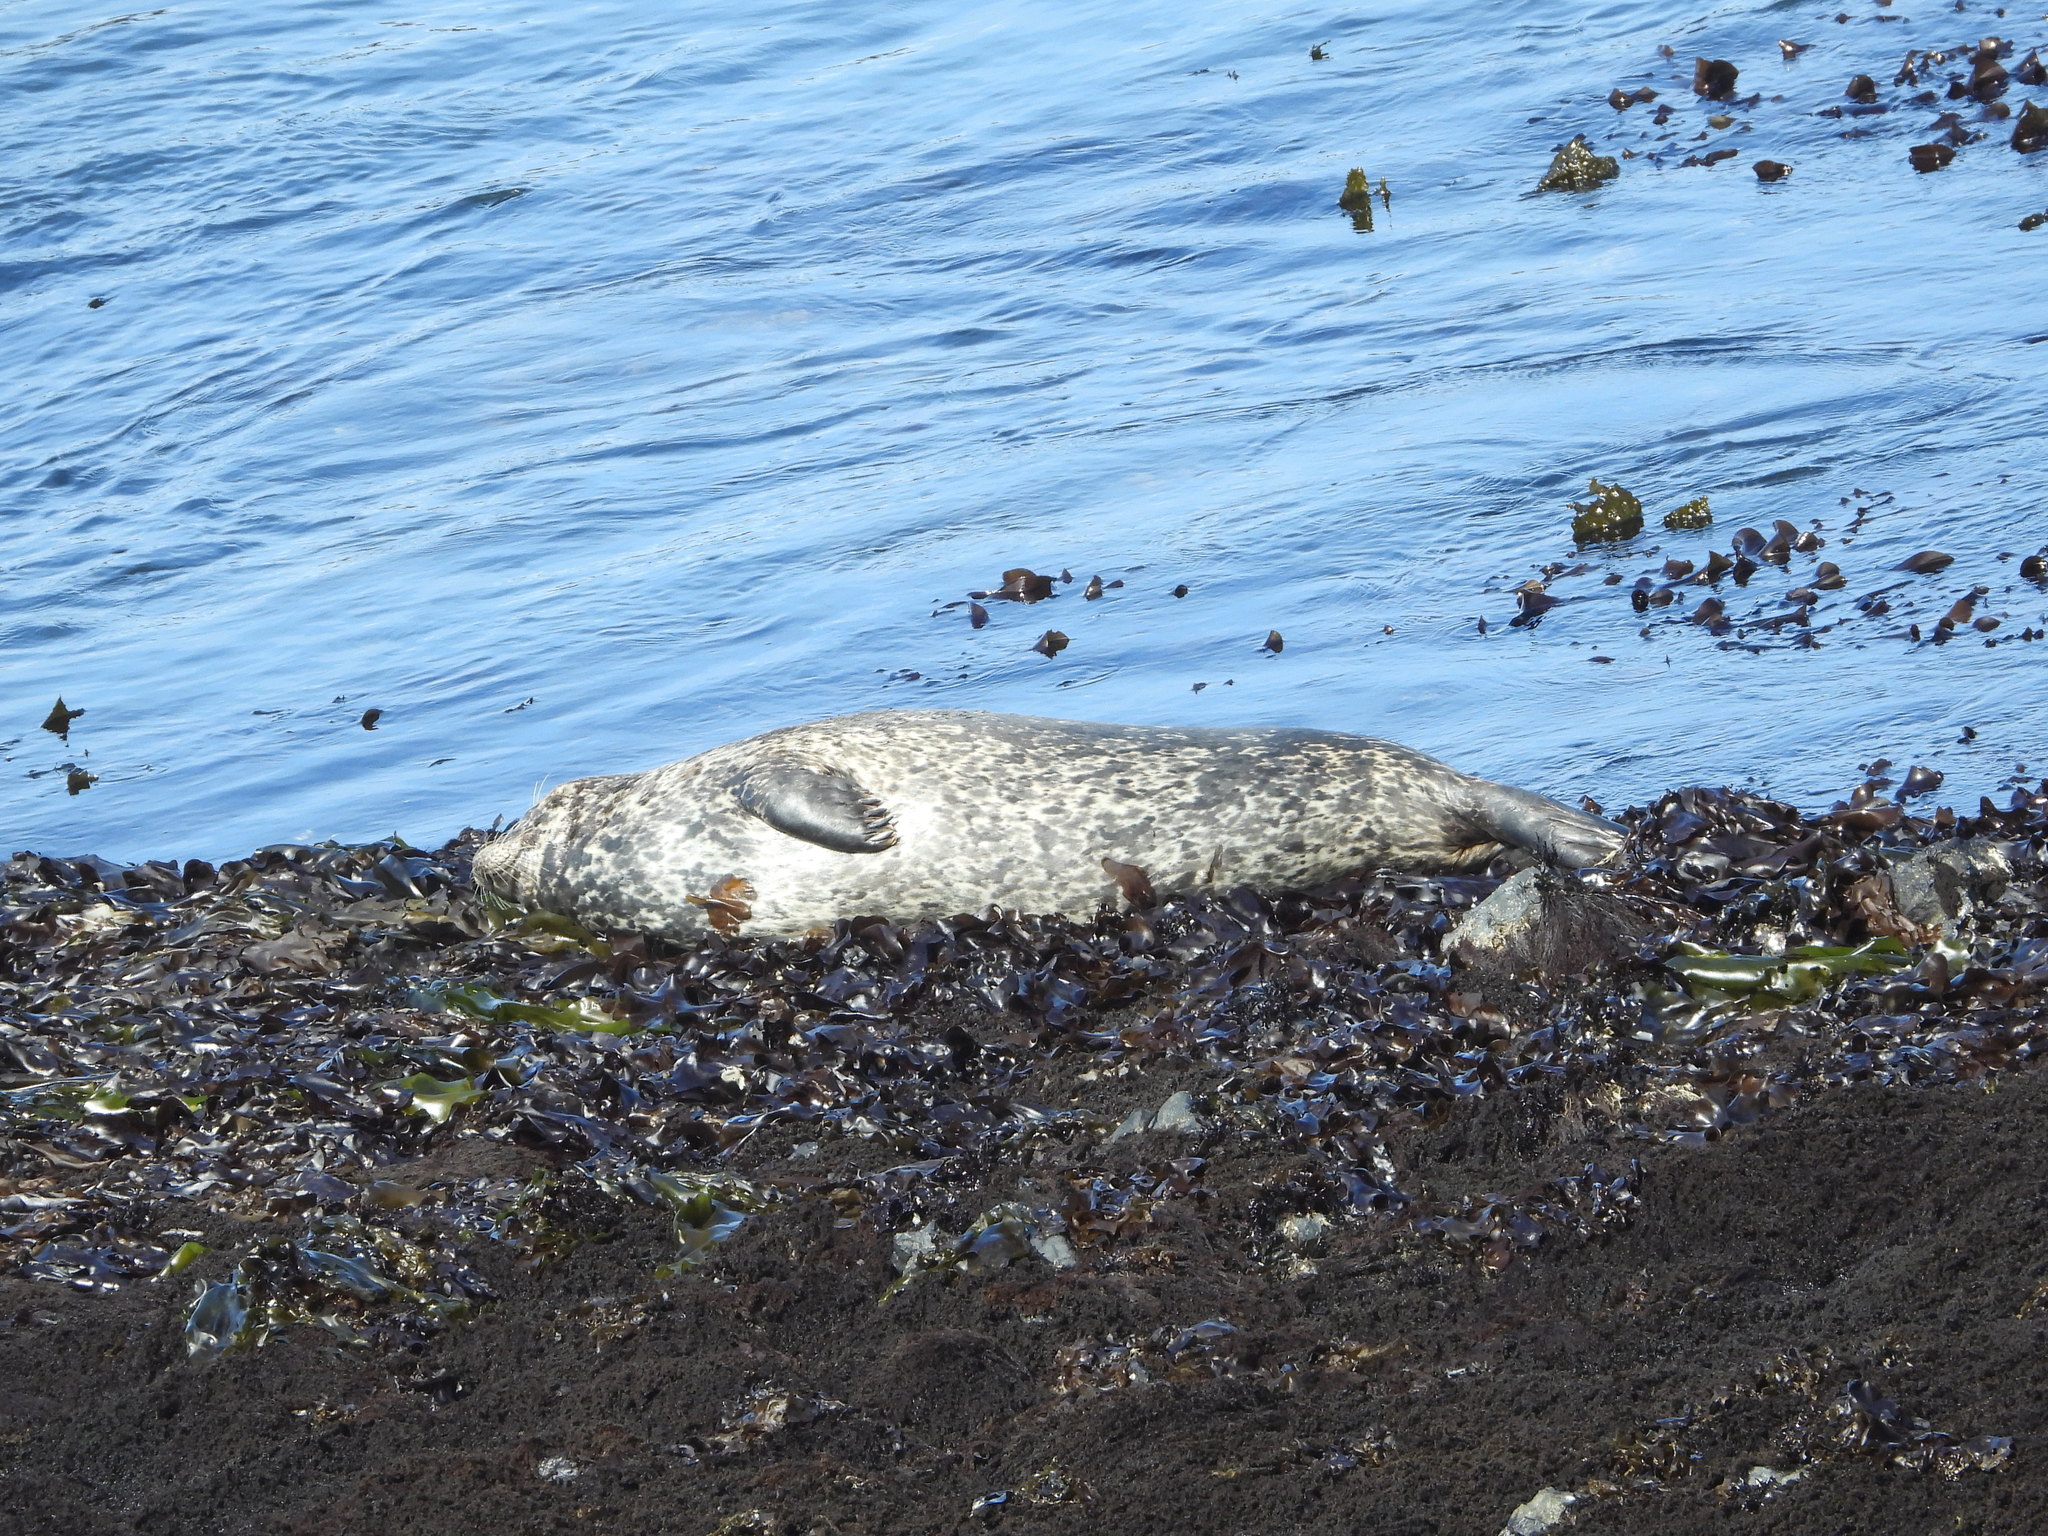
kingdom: Animalia
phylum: Chordata
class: Mammalia
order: Carnivora
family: Phocidae
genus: Phoca
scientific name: Phoca vitulina
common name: Harbor seal
